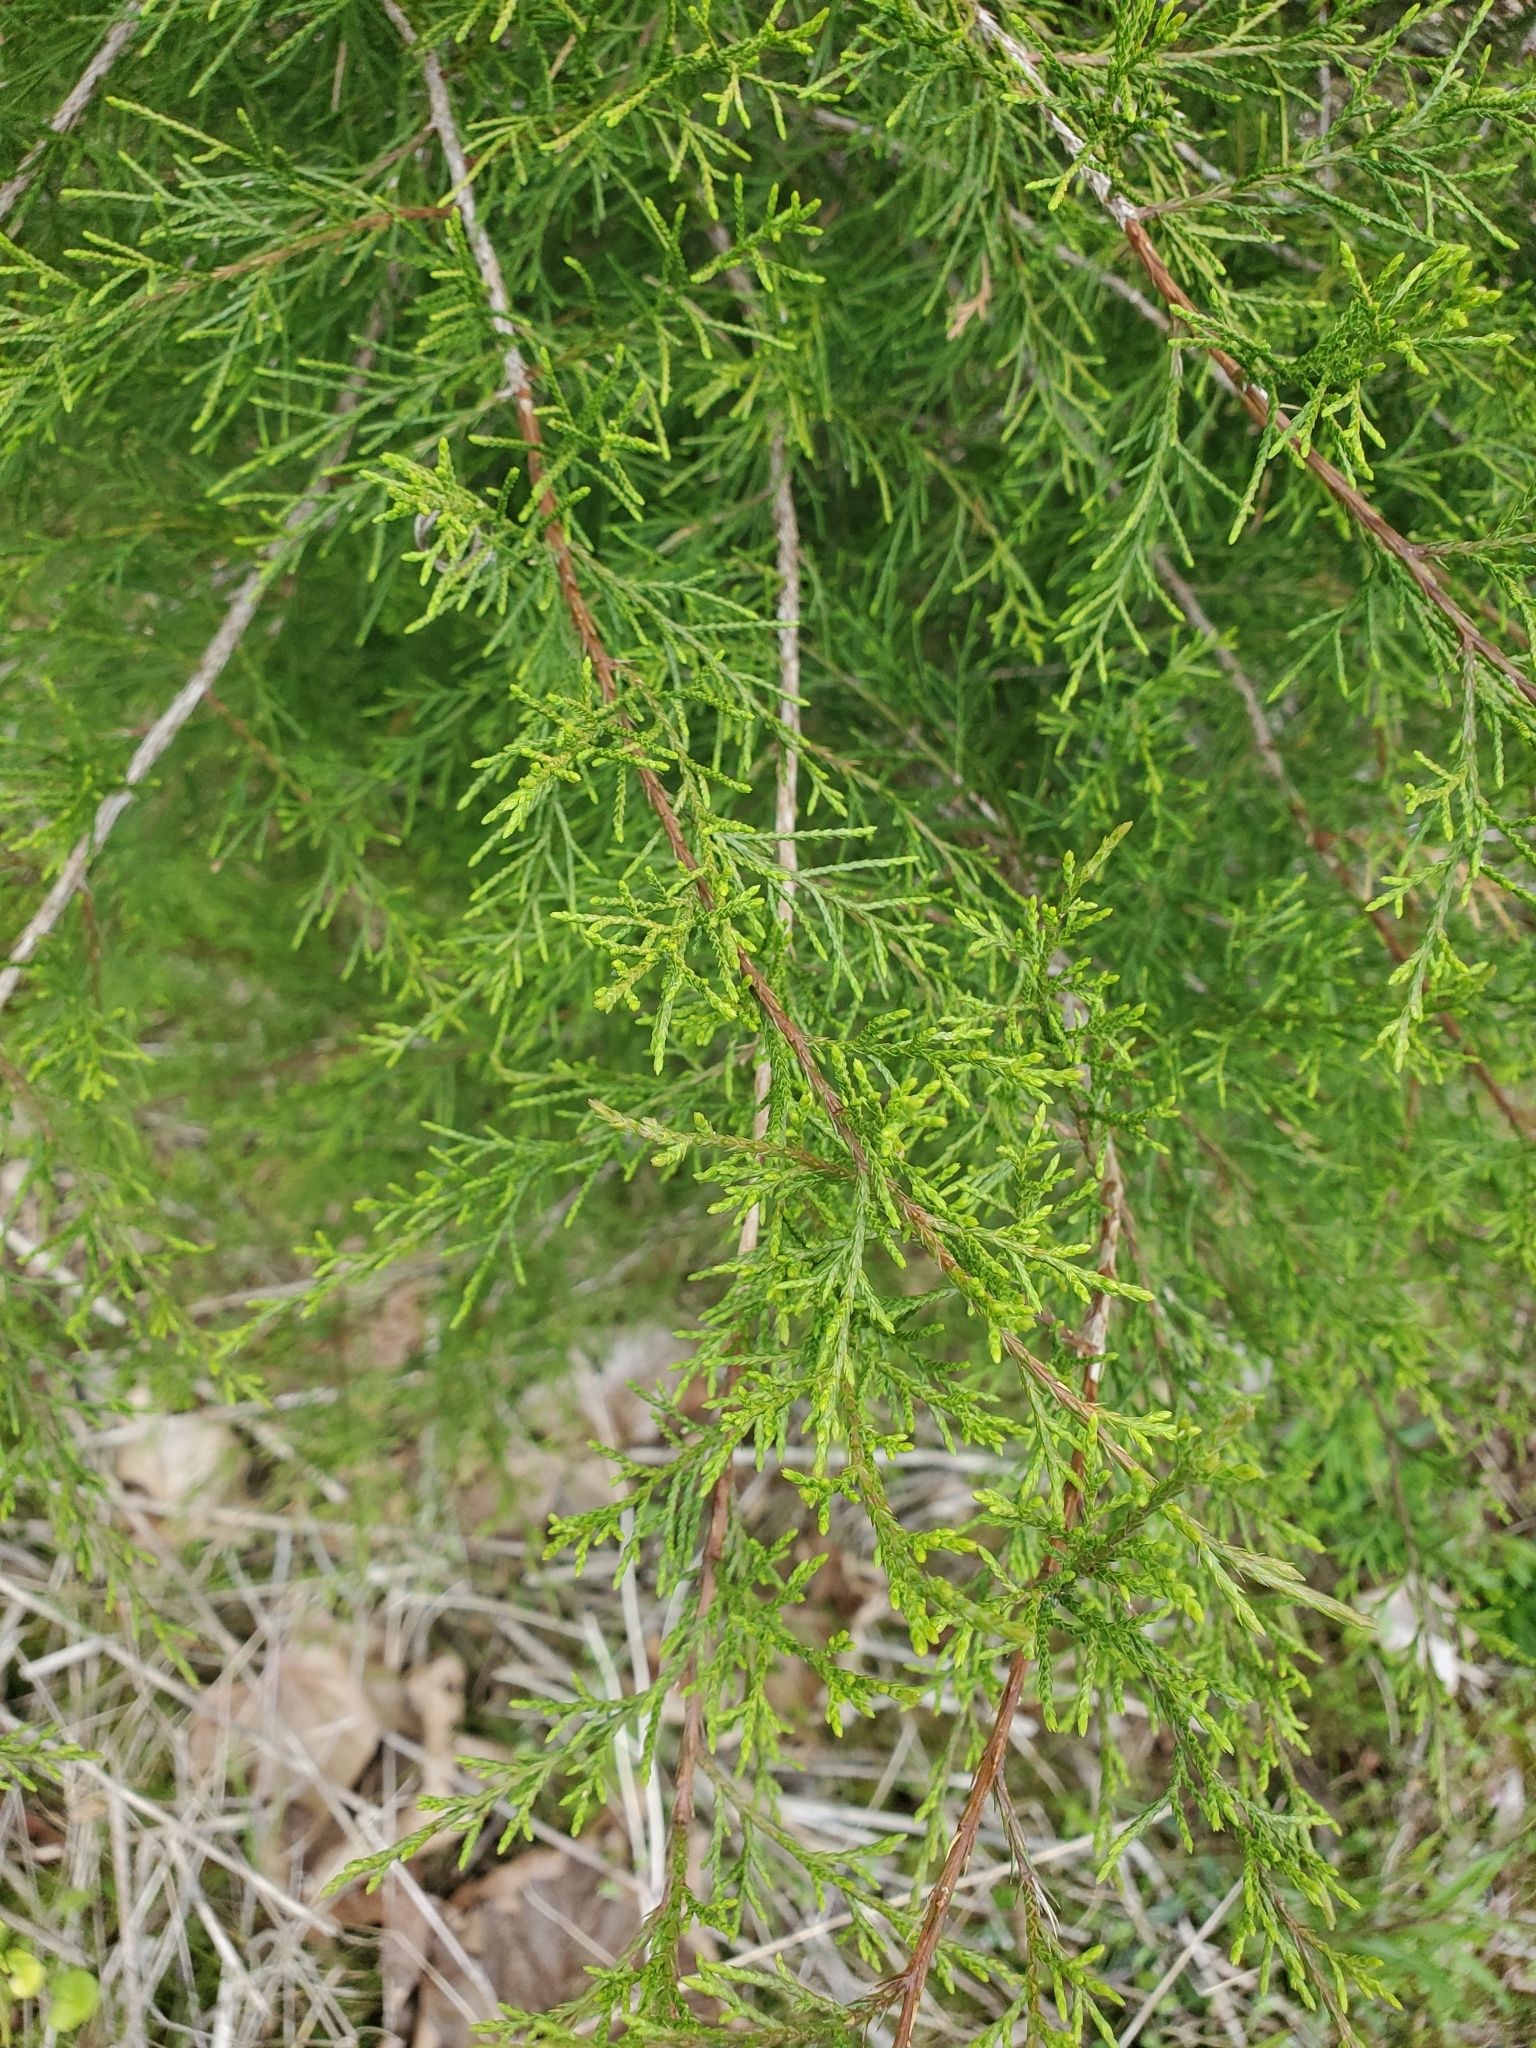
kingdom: Plantae
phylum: Tracheophyta
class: Pinopsida
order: Pinales
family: Cupressaceae
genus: Juniperus
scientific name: Juniperus virginiana
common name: Red juniper
